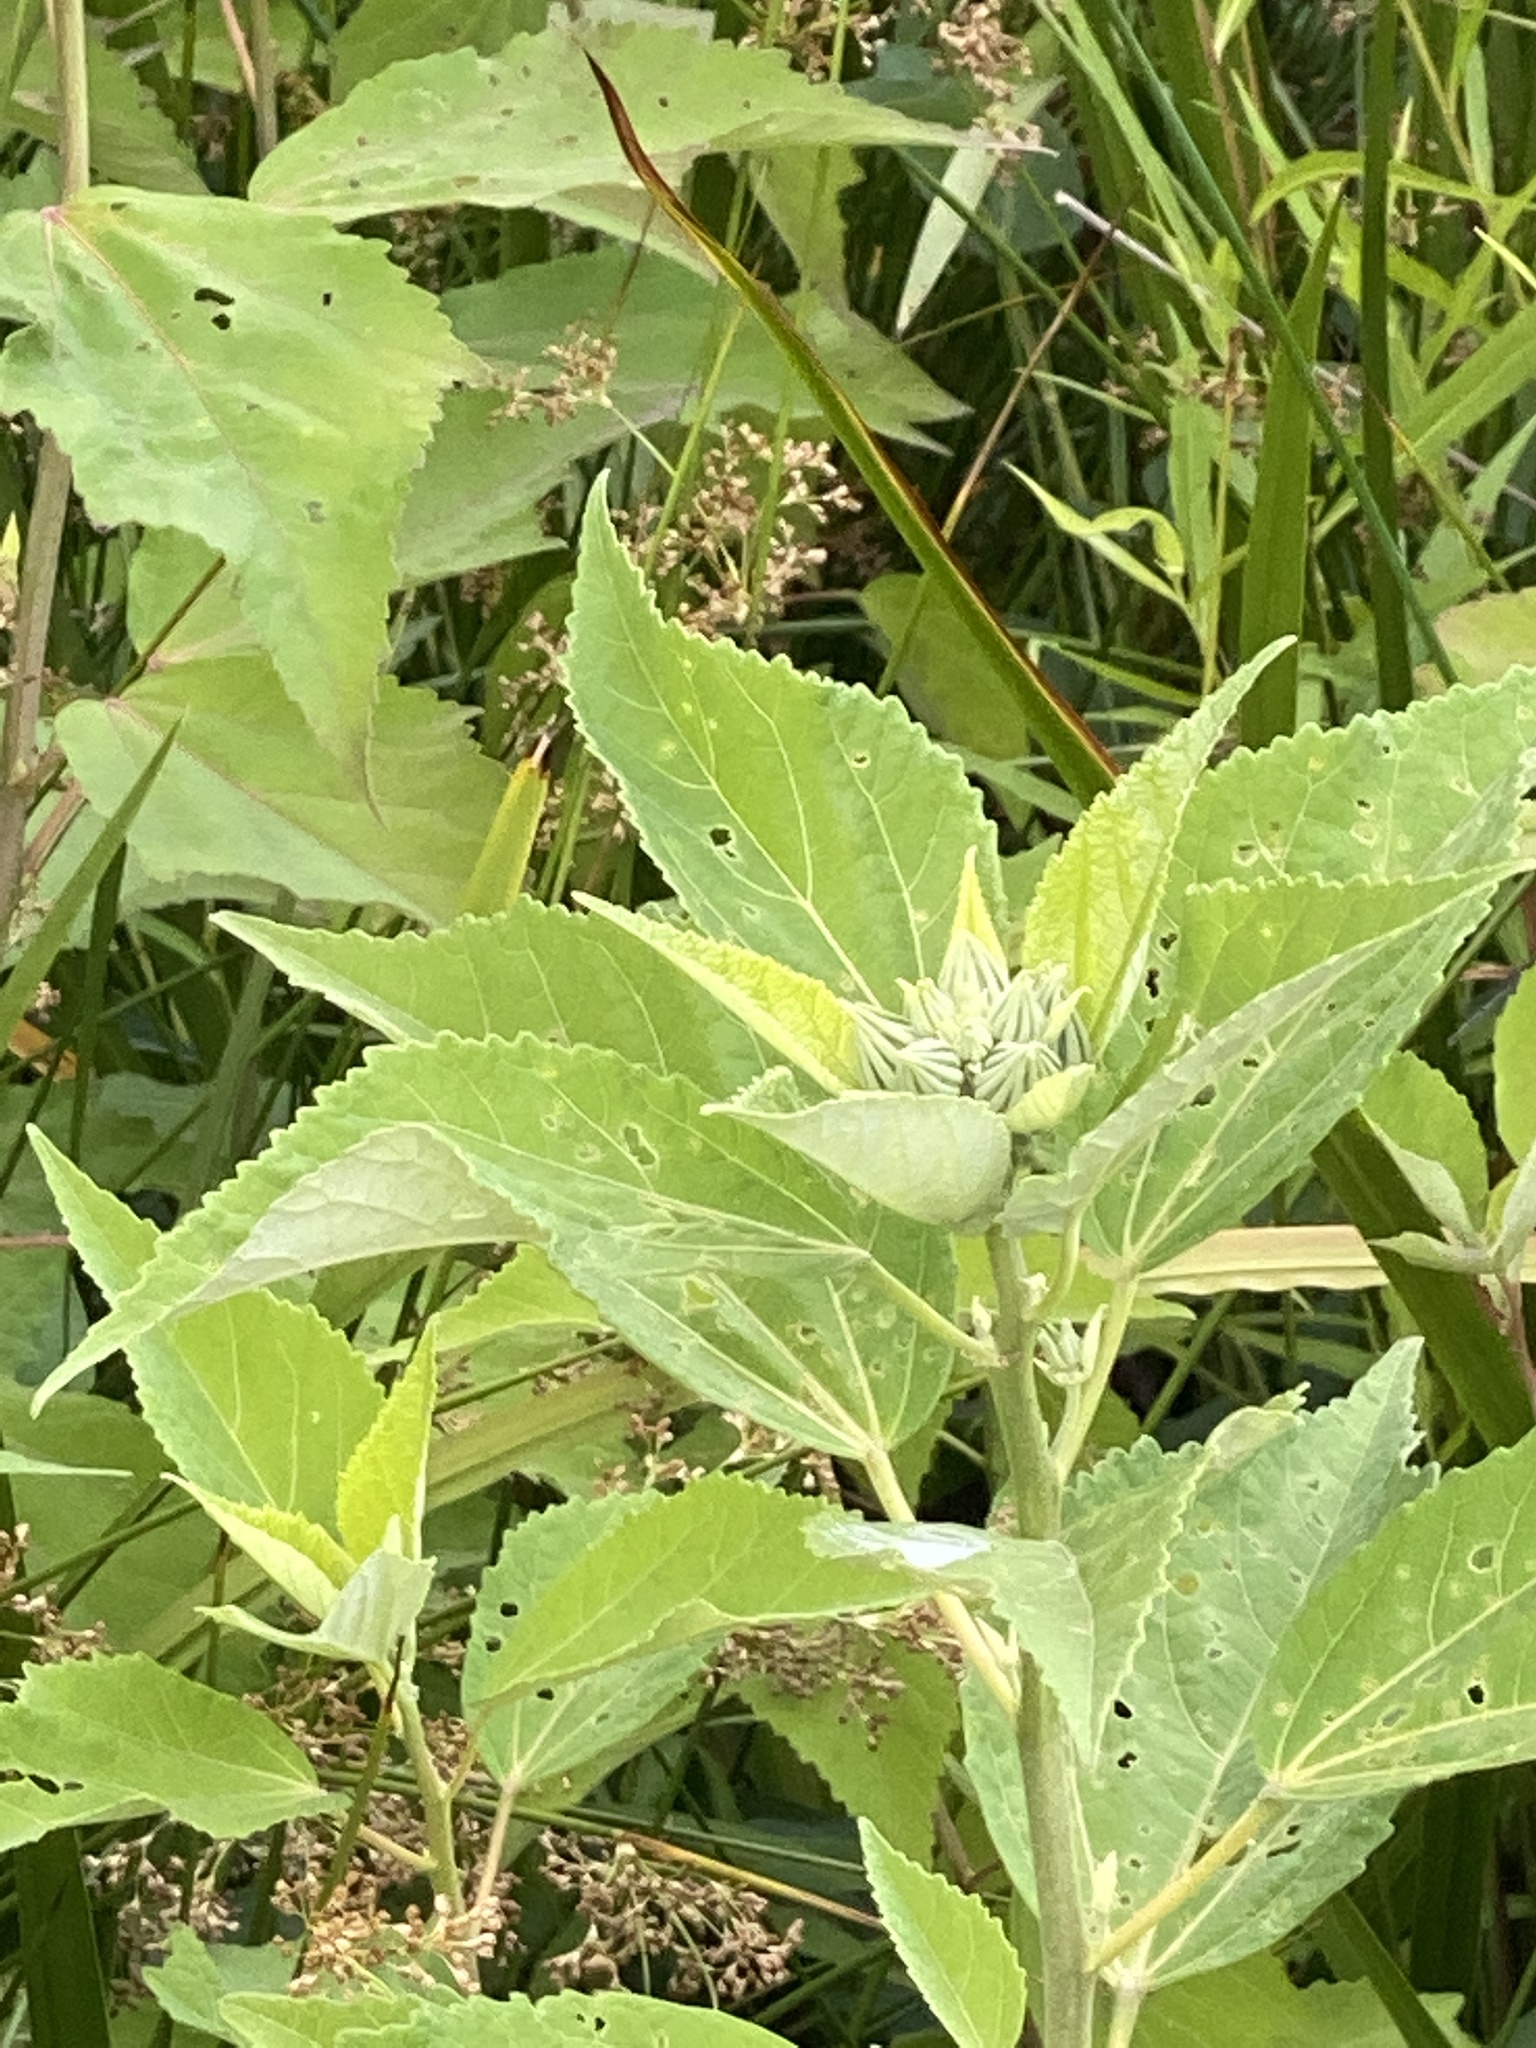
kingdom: Plantae
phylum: Tracheophyta
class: Magnoliopsida
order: Malvales
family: Malvaceae
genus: Hibiscus
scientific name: Hibiscus moscheutos
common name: Common rose-mallow
